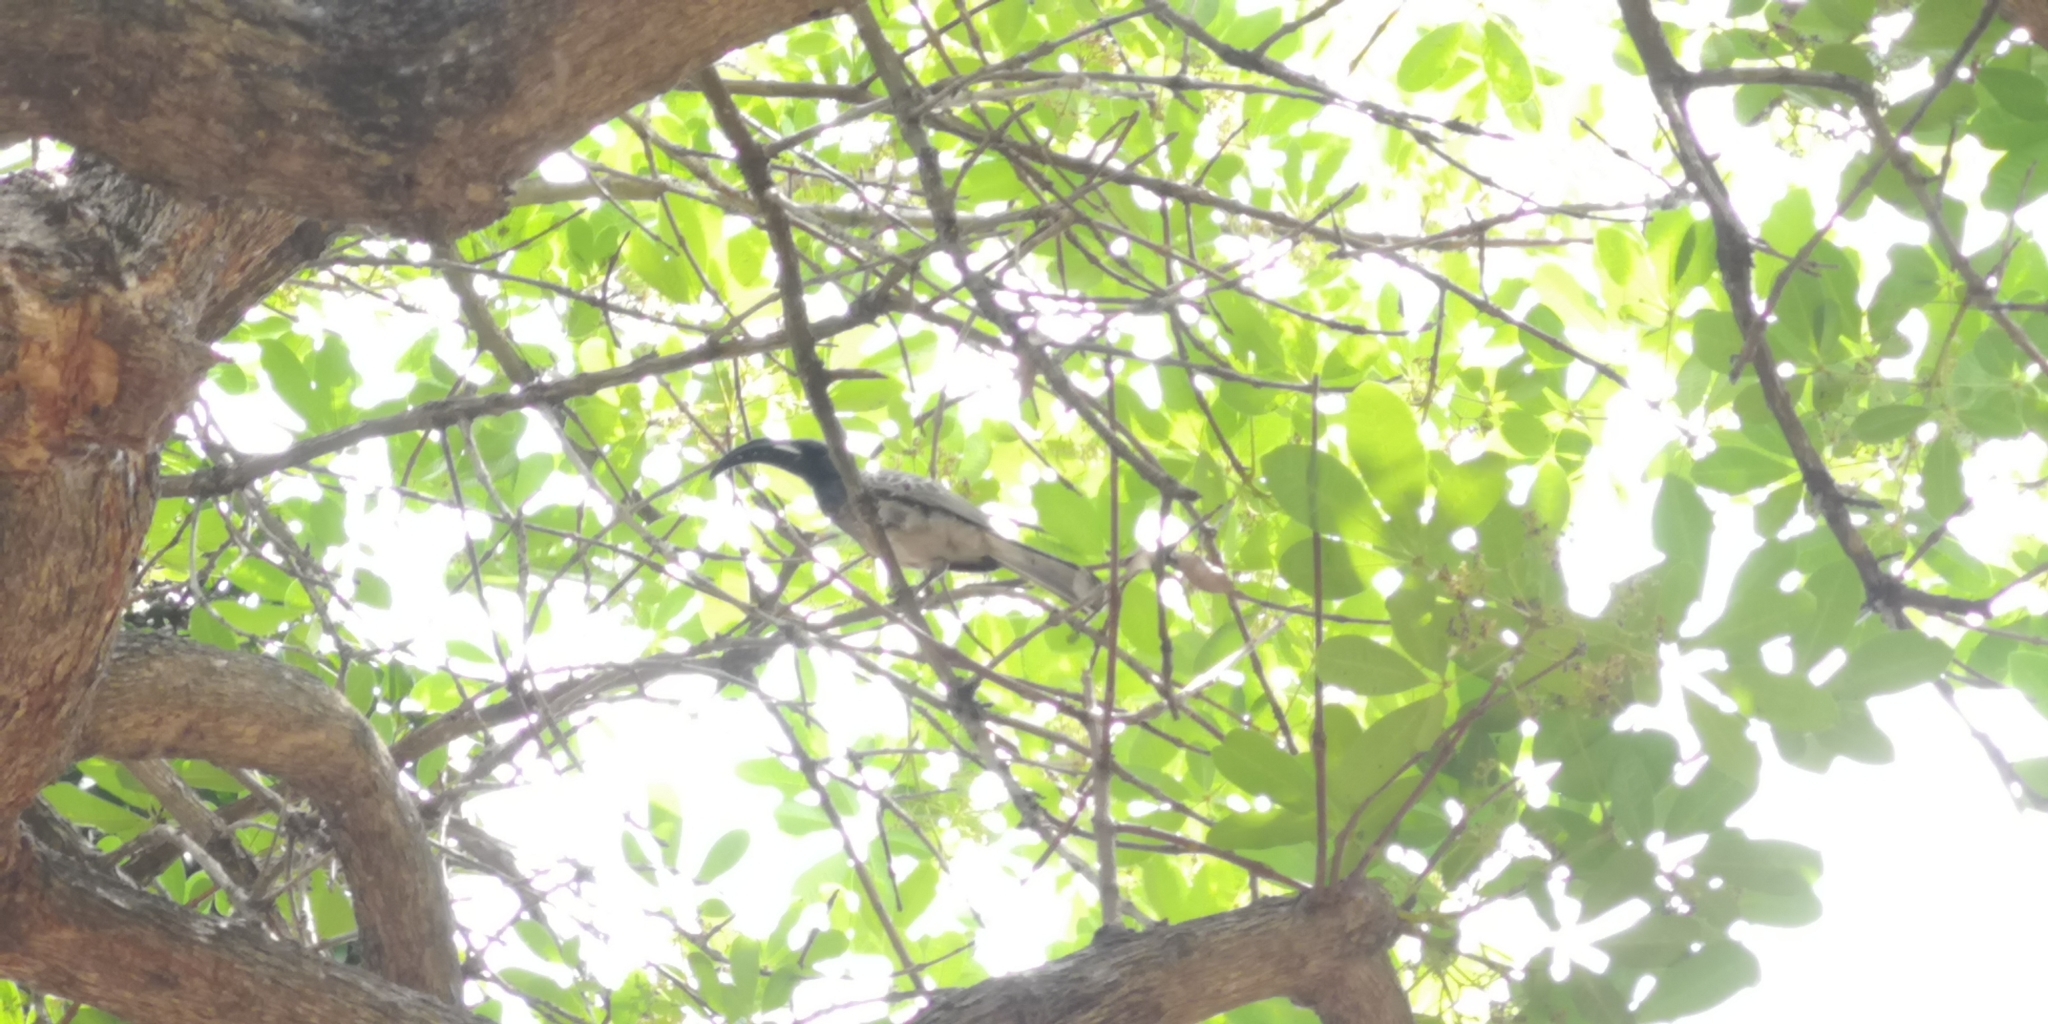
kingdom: Animalia
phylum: Chordata
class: Aves
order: Bucerotiformes
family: Bucerotidae
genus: Lophoceros
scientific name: Lophoceros nasutus
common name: African grey hornbill
